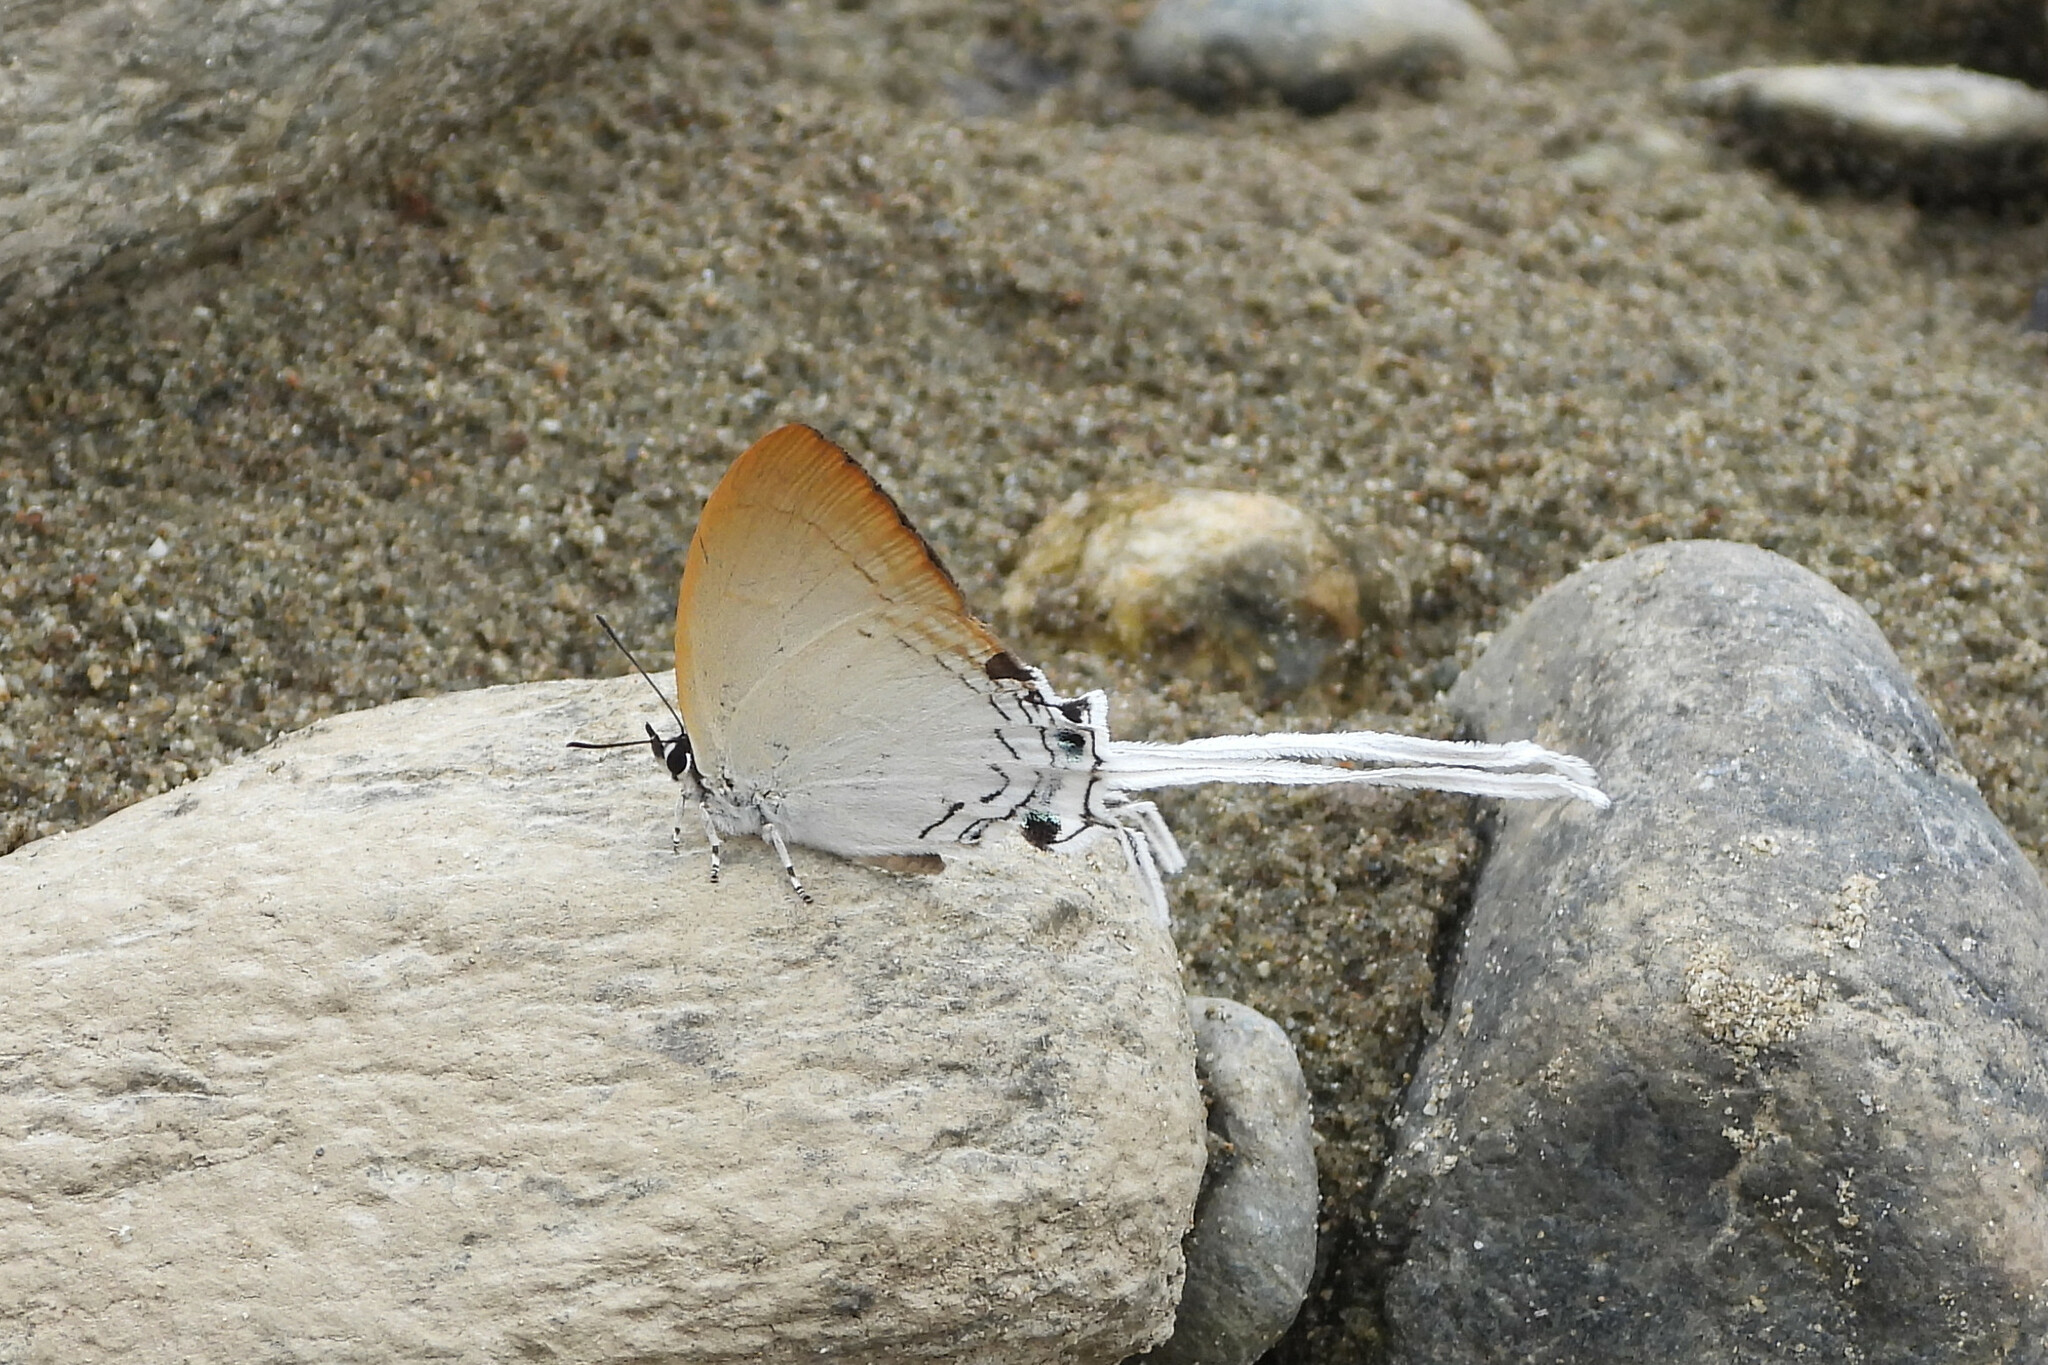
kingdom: Animalia
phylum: Arthropoda
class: Insecta
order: Lepidoptera
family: Lycaenidae
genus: Cheritra
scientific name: Cheritra freja
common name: Common imperial
